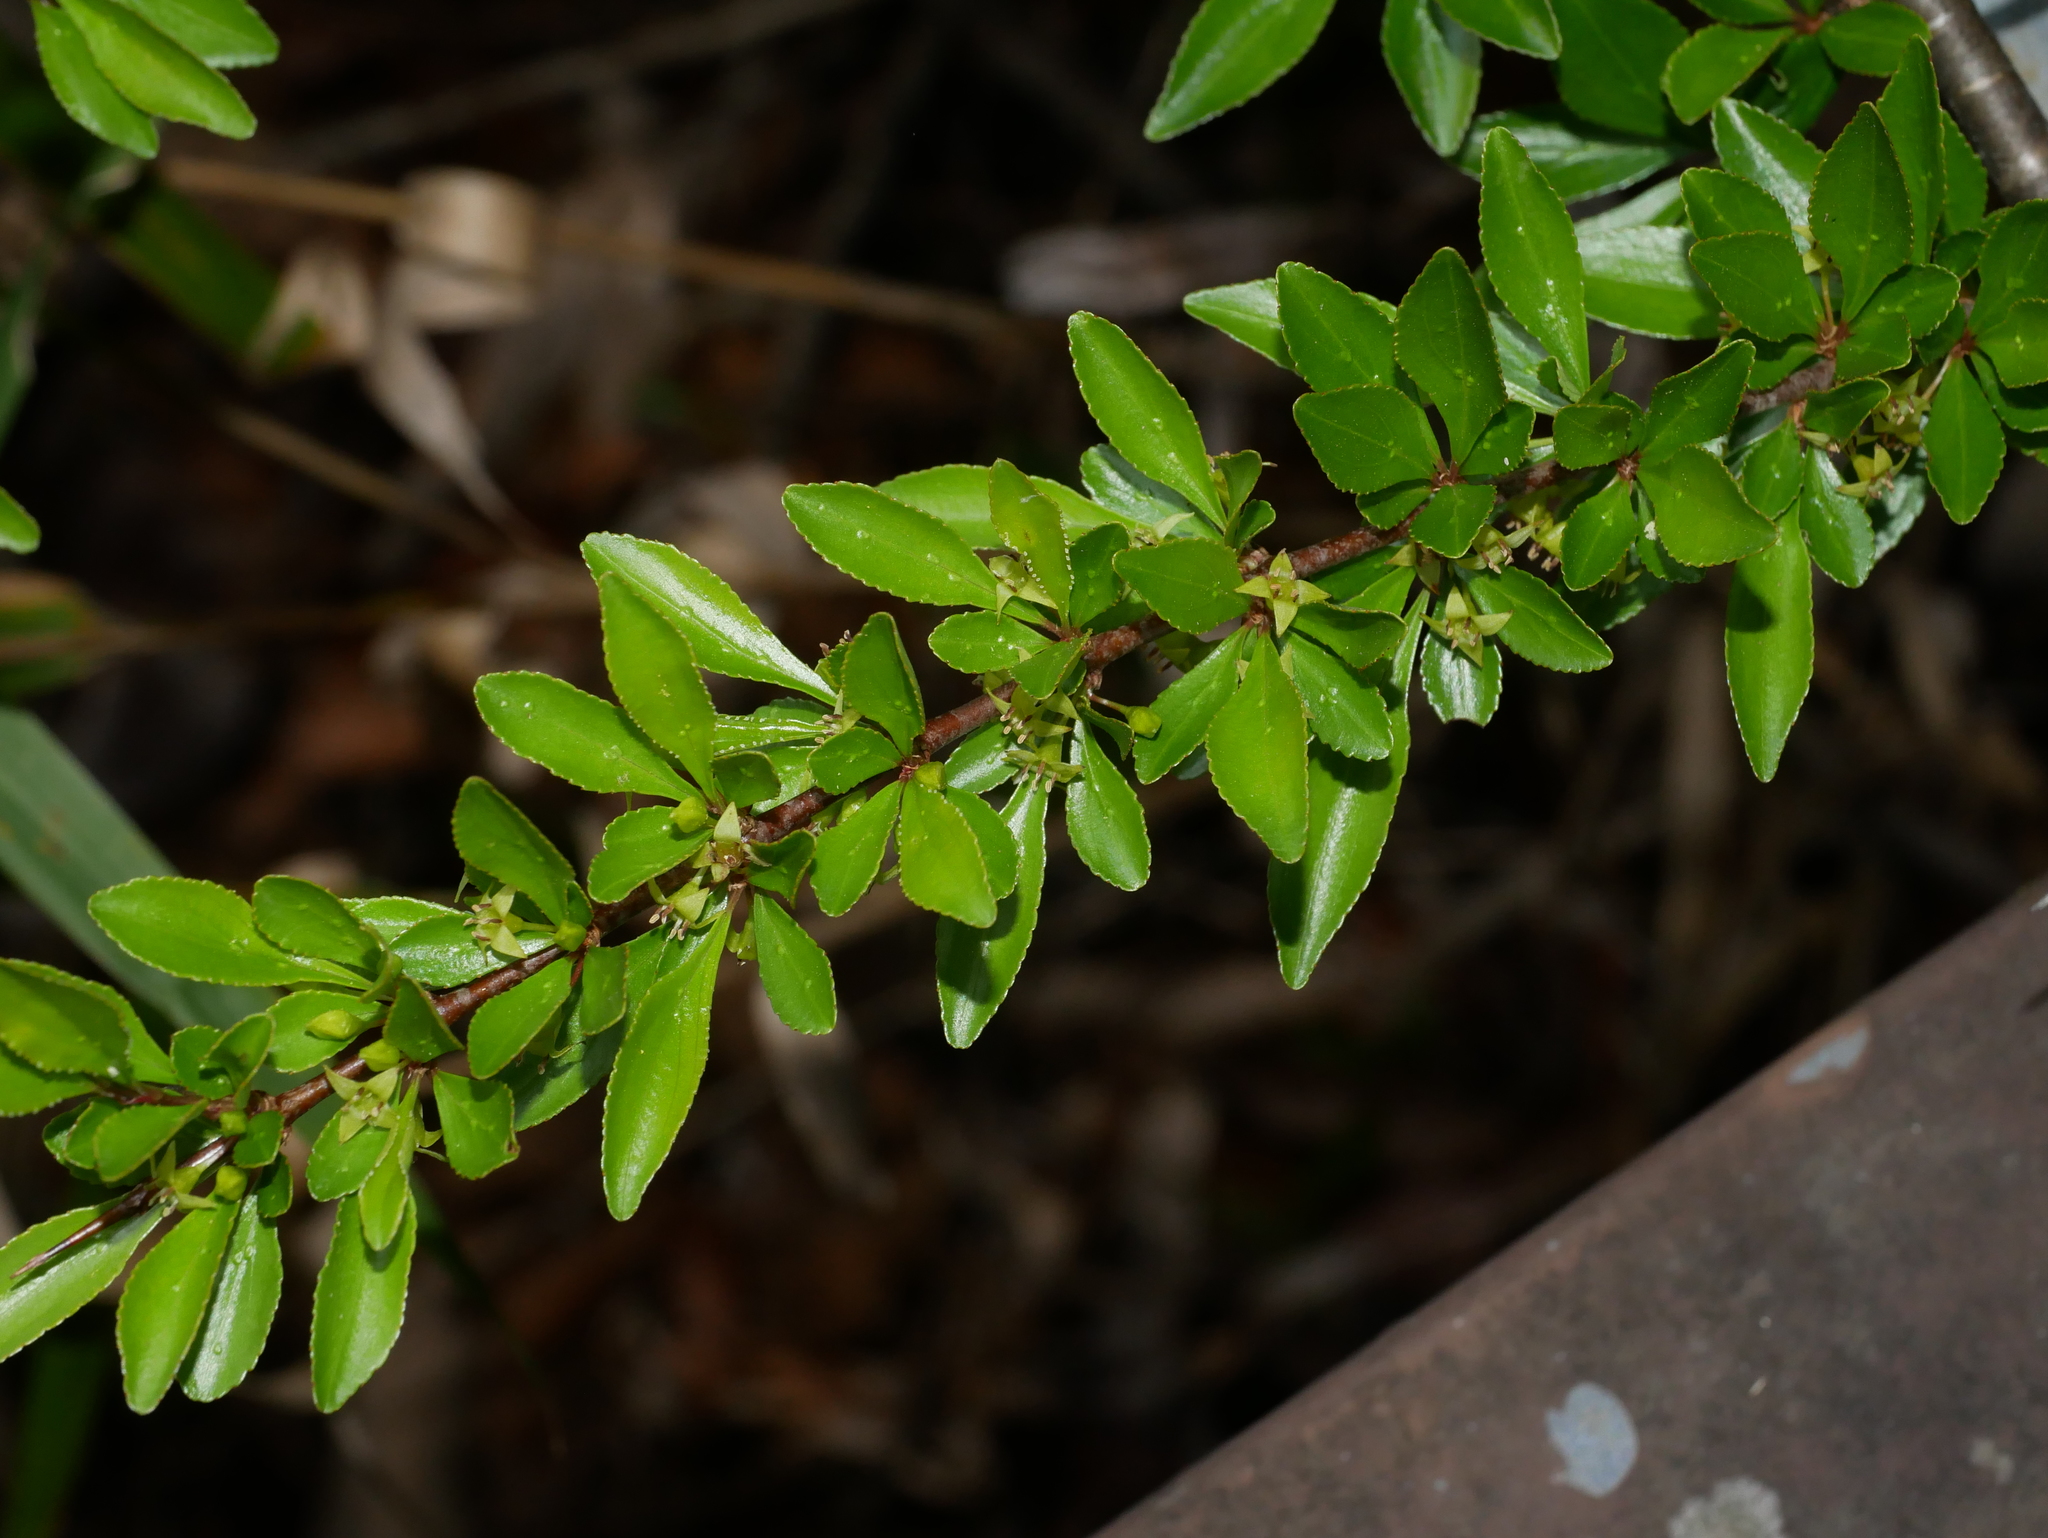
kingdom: Plantae
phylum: Tracheophyta
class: Magnoliopsida
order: Rosales
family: Rhamnaceae
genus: Rhamnus
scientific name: Rhamnus parvifolia
